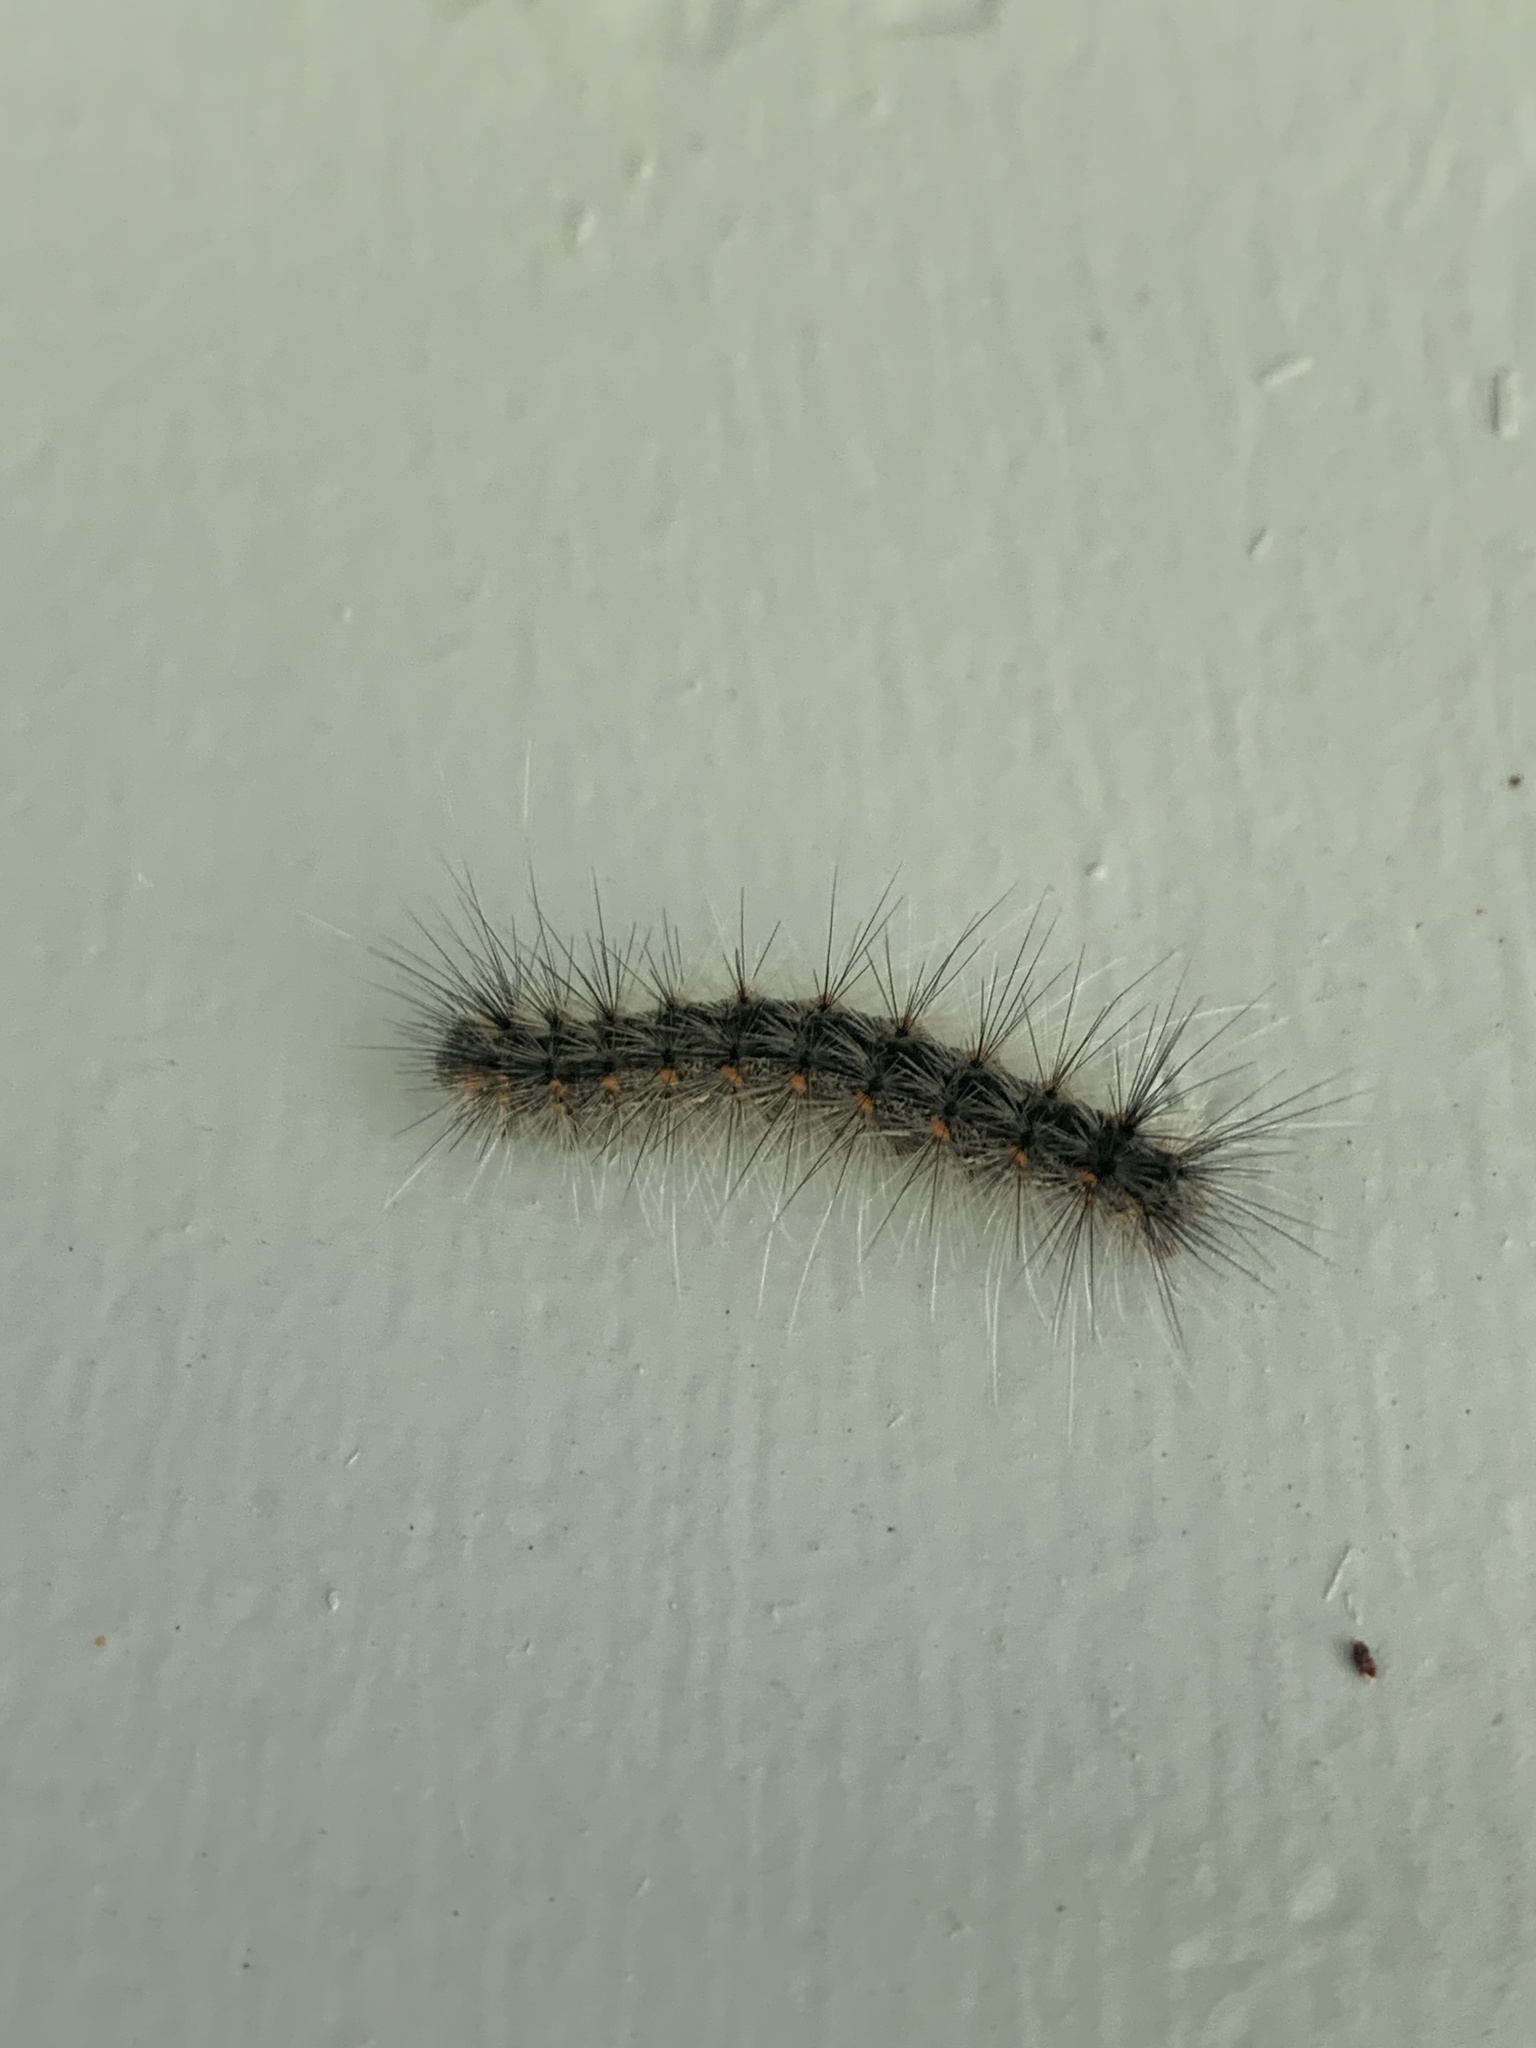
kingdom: Animalia
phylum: Arthropoda
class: Insecta
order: Lepidoptera
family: Erebidae
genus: Hyphantria
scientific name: Hyphantria cunea
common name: American white moth
